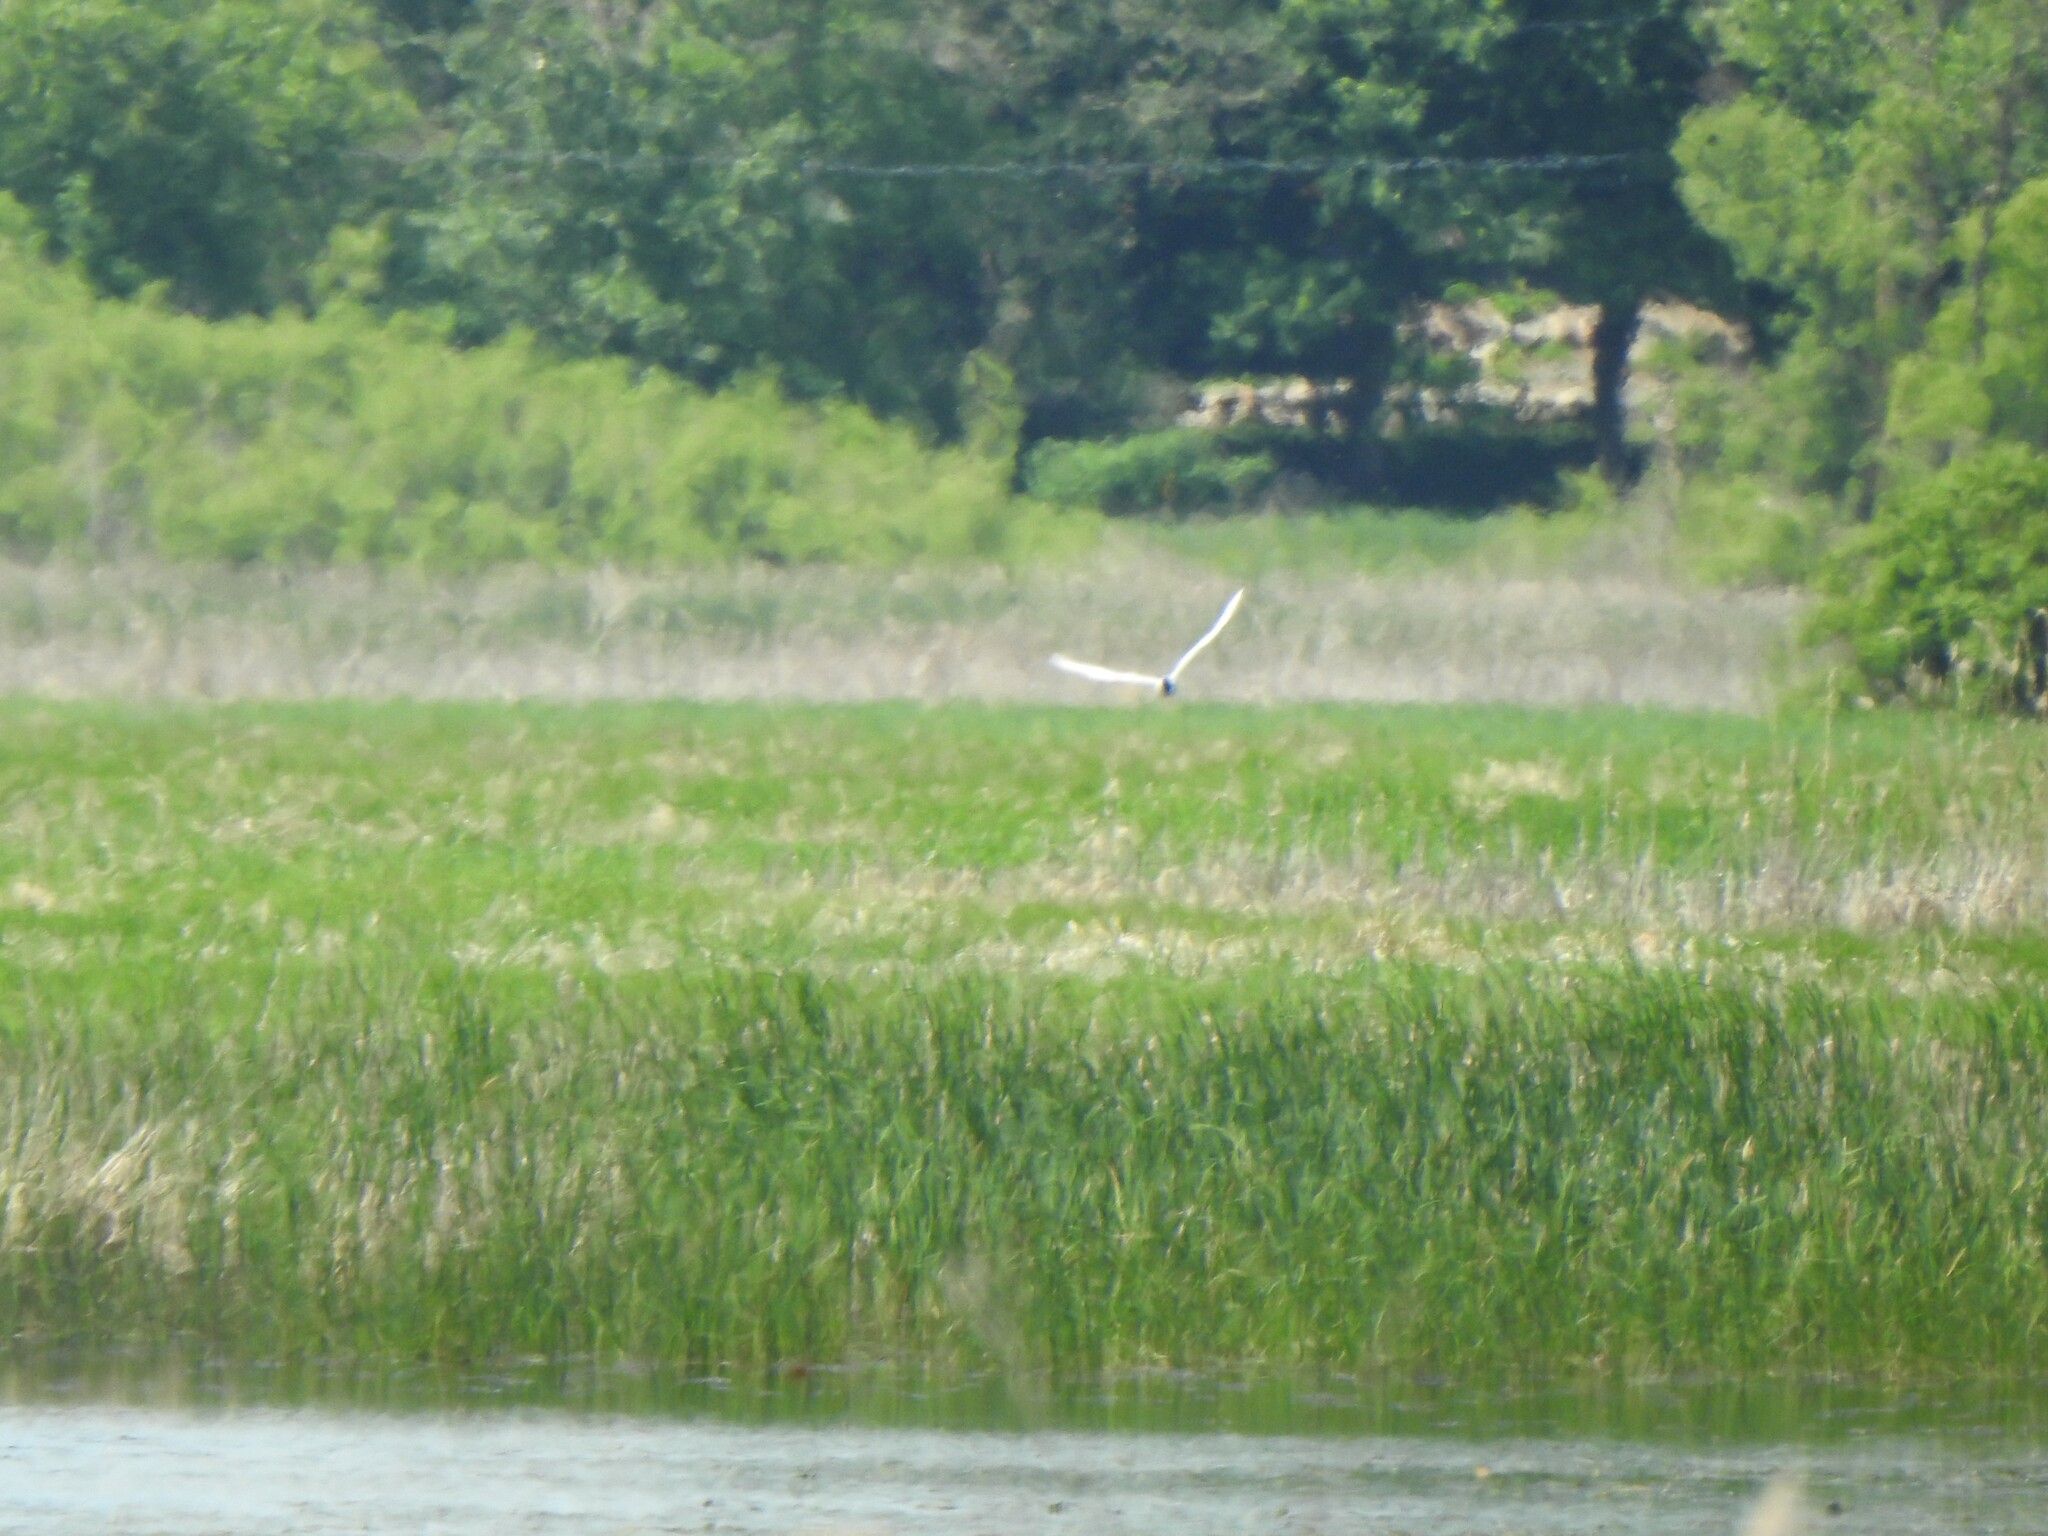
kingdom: Animalia
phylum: Chordata
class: Aves
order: Charadriiformes
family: Laridae
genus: Sterna
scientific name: Sterna forsteri
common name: Forster's tern
